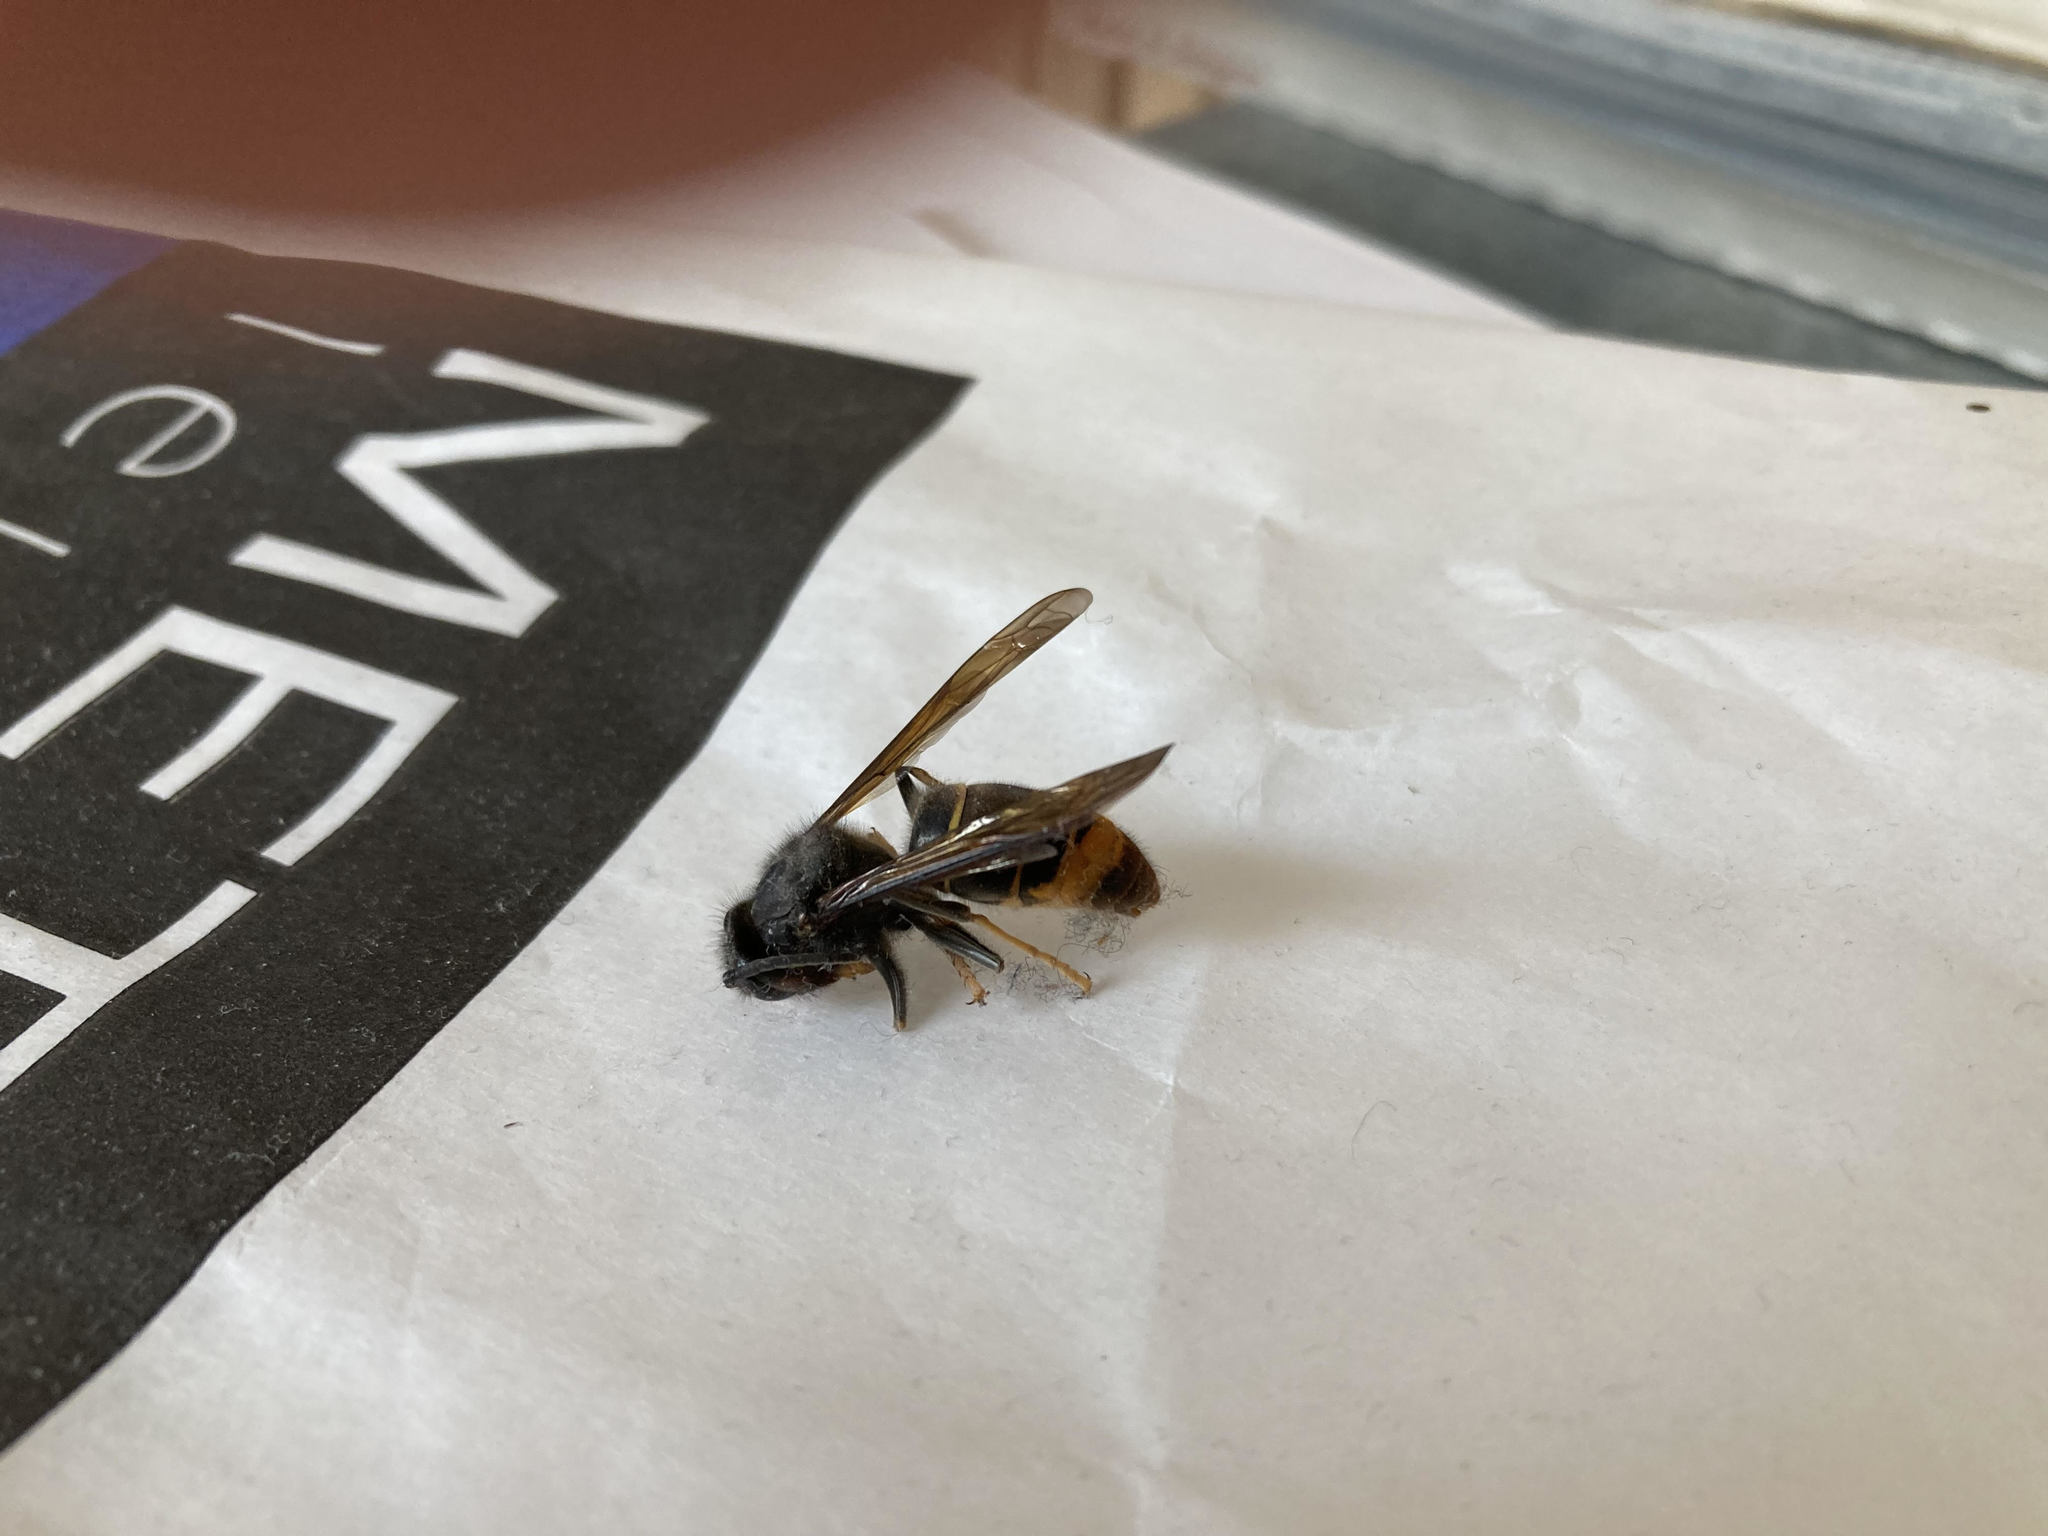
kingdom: Animalia
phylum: Arthropoda
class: Insecta
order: Hymenoptera
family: Vespidae
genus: Vespa
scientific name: Vespa velutina
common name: Asian hornet
